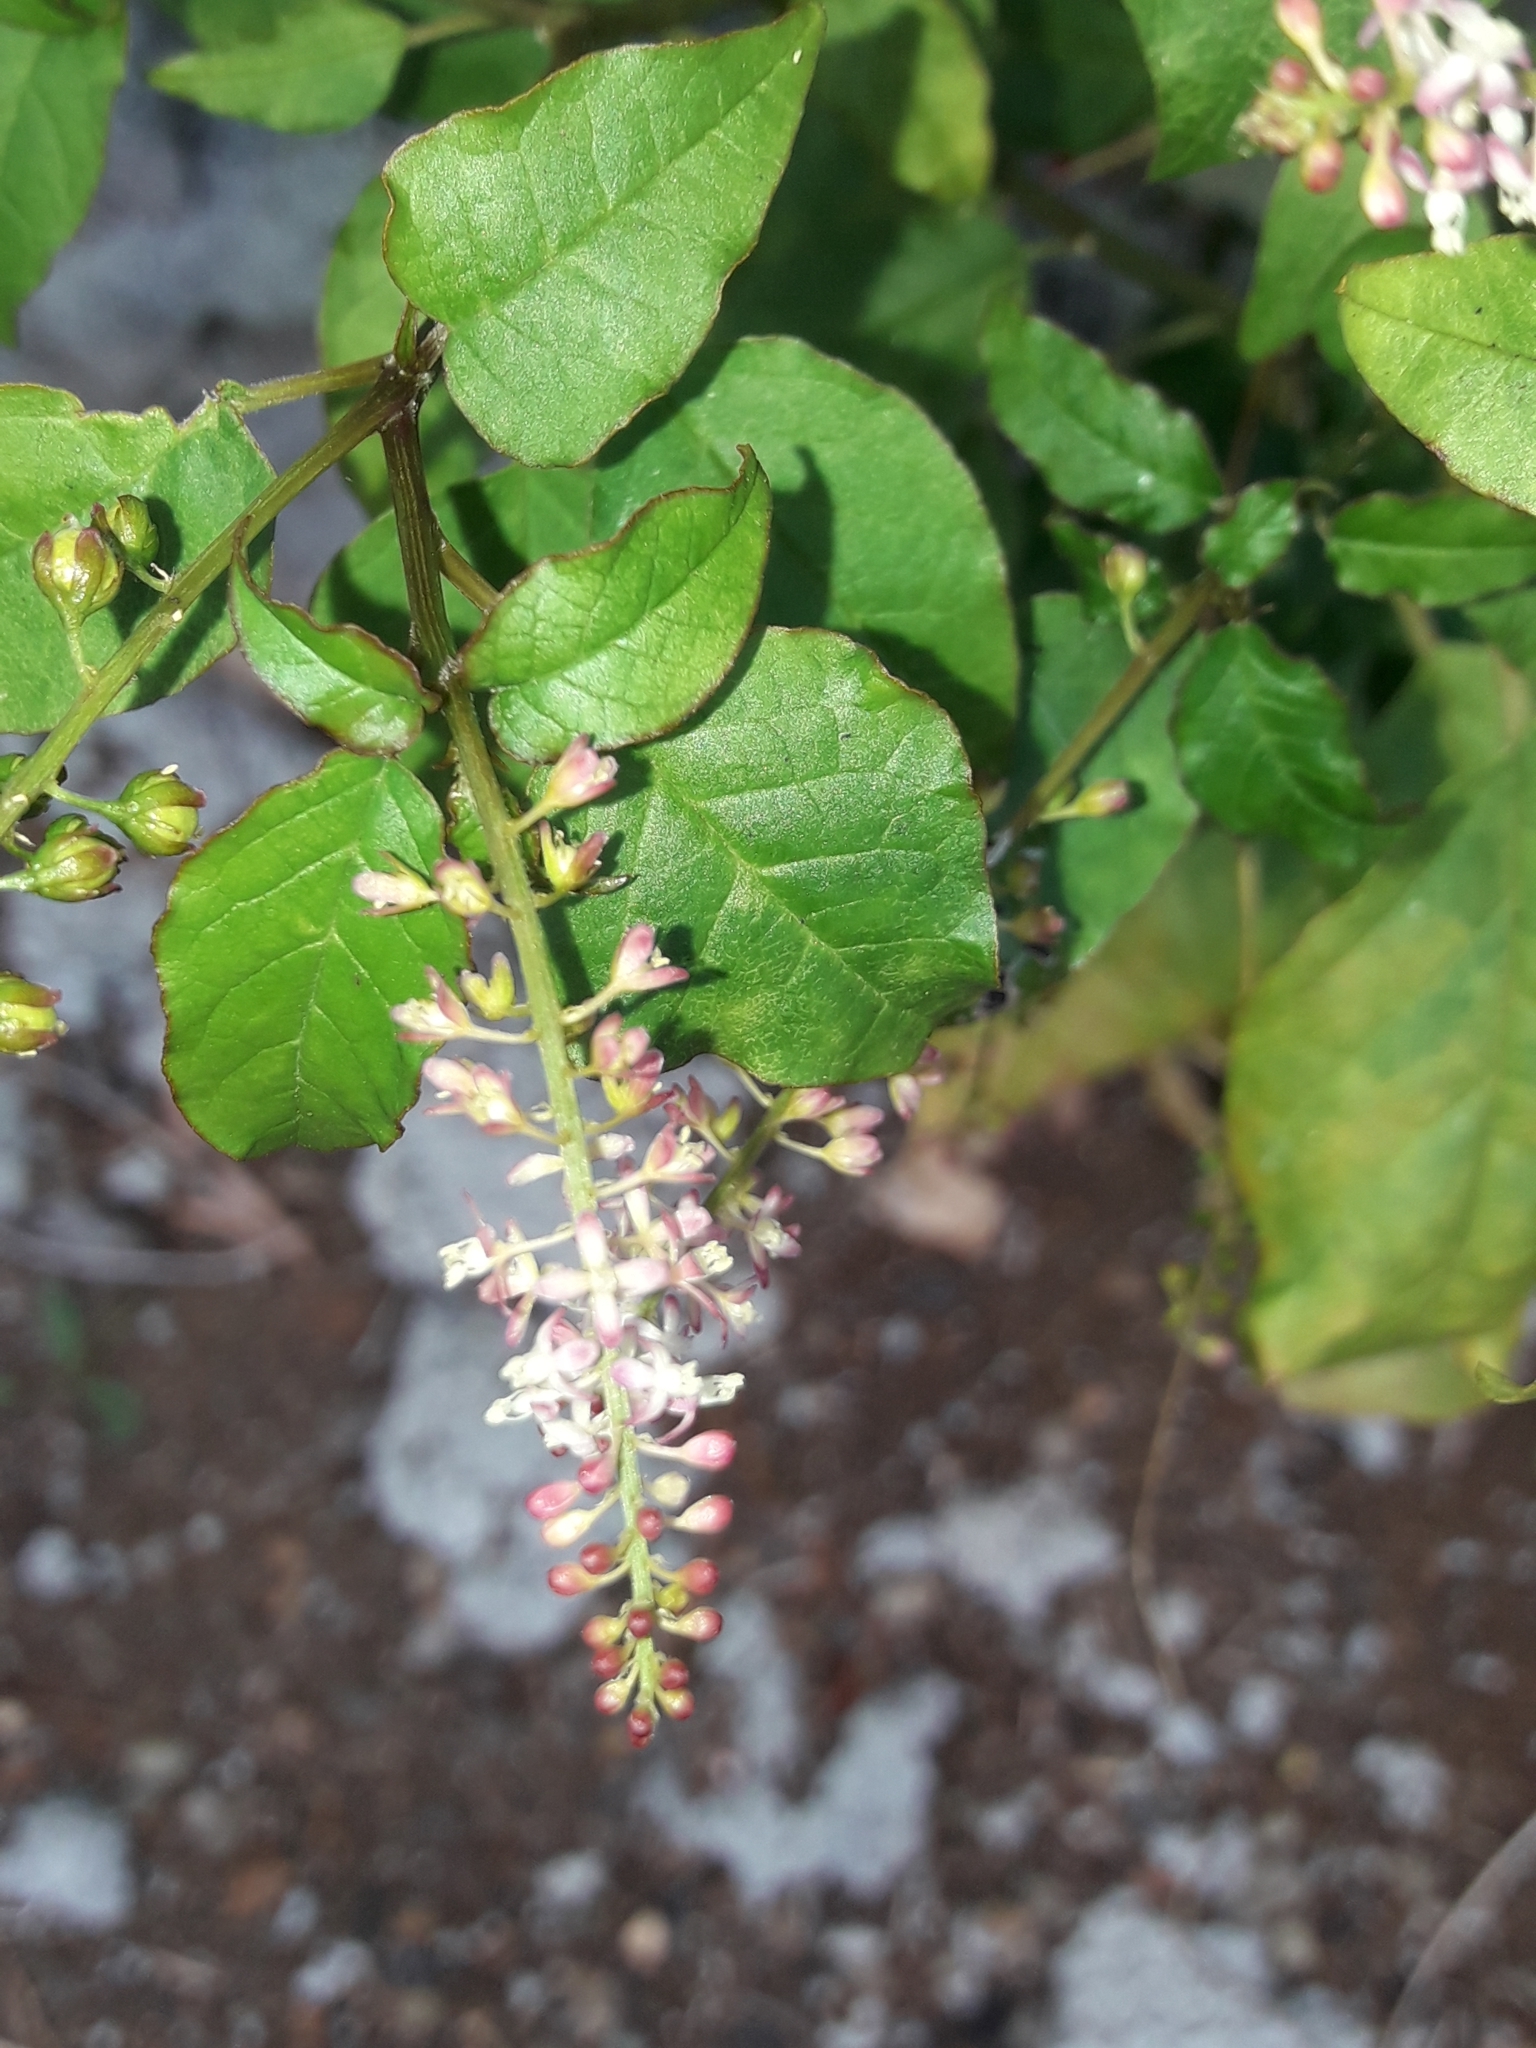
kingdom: Plantae
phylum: Tracheophyta
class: Magnoliopsida
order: Caryophyllales
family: Phytolaccaceae
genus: Rivina
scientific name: Rivina humilis
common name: Rougeplant
